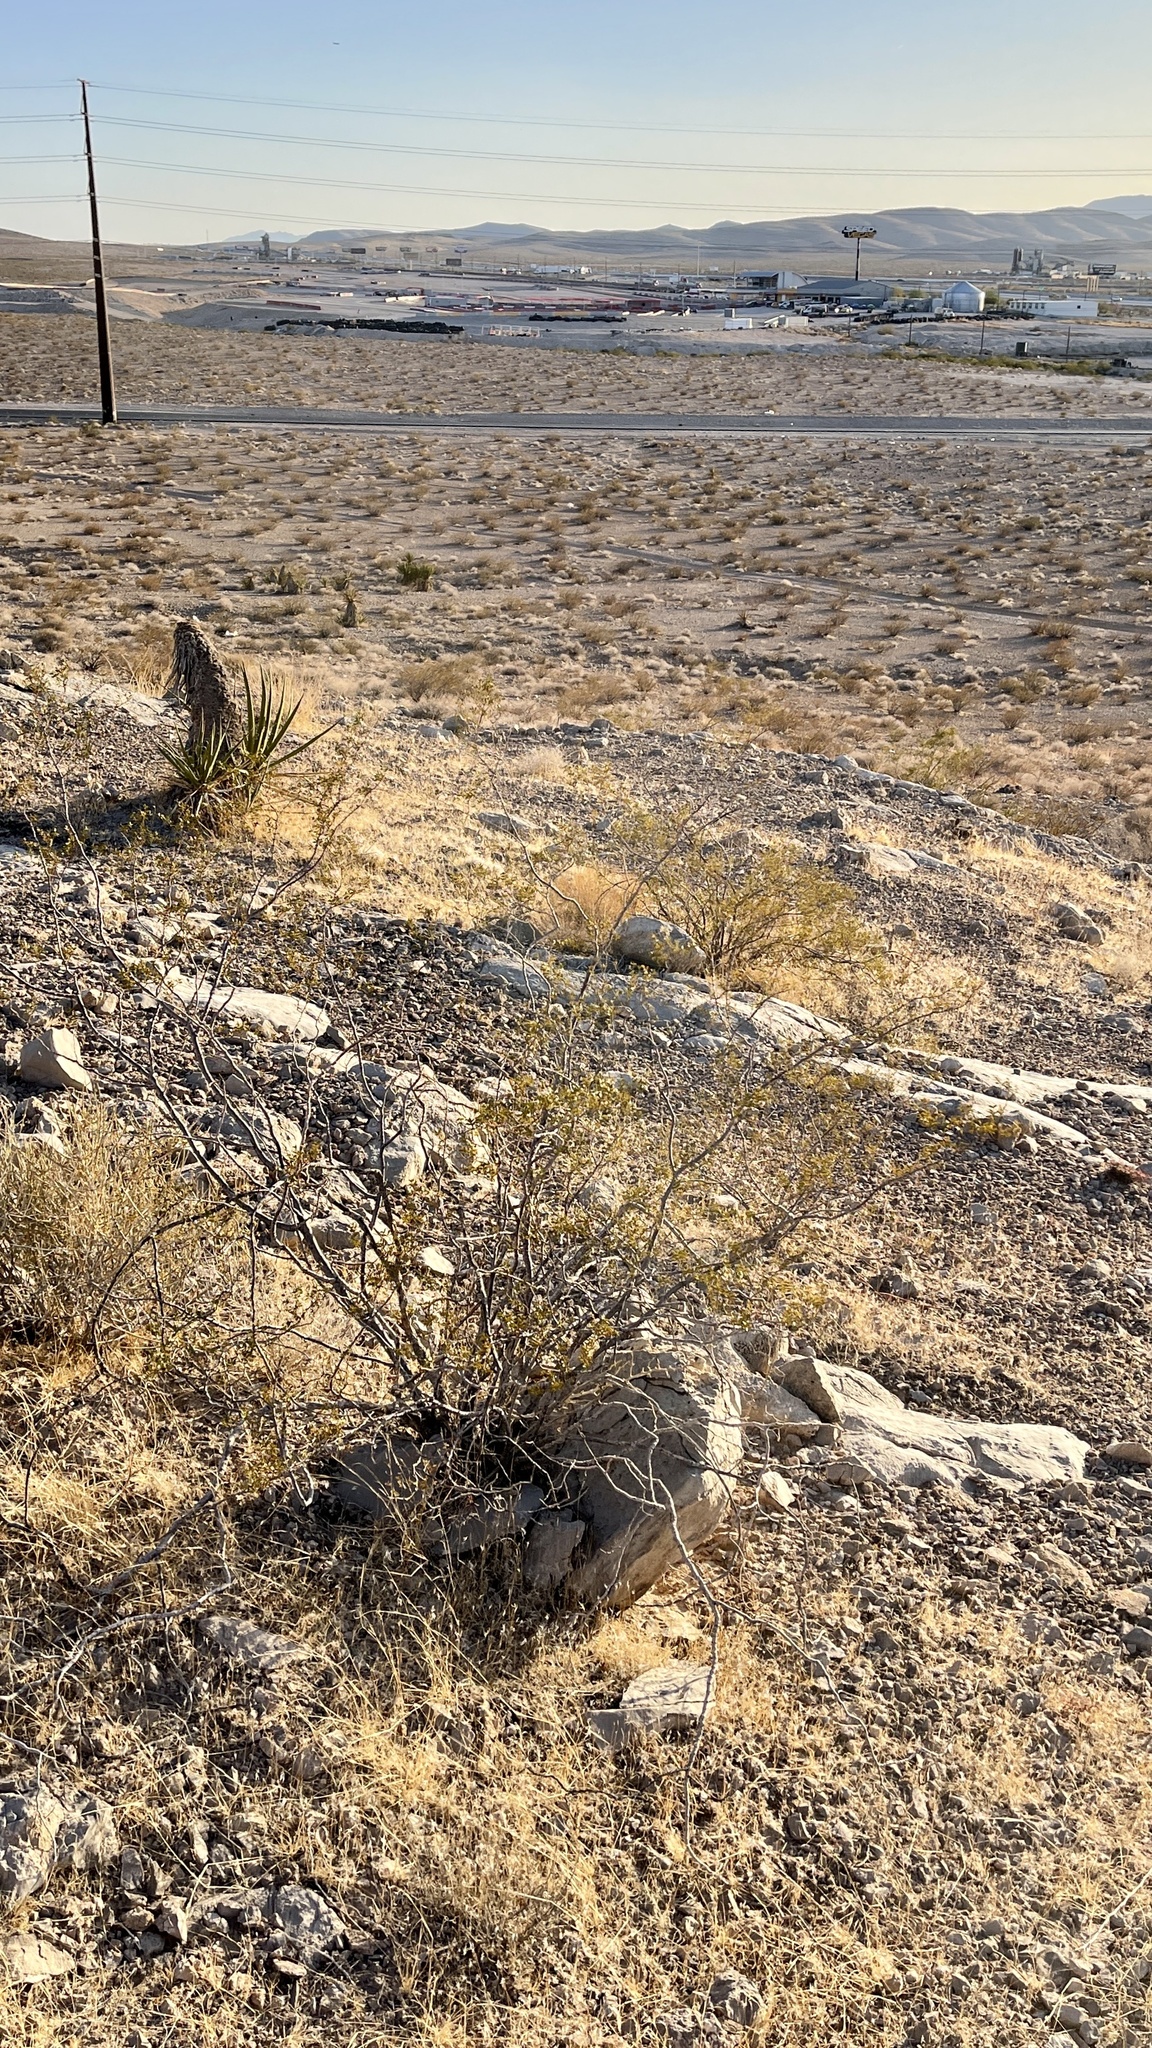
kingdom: Plantae
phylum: Tracheophyta
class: Magnoliopsida
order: Zygophyllales
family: Zygophyllaceae
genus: Larrea
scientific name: Larrea tridentata
